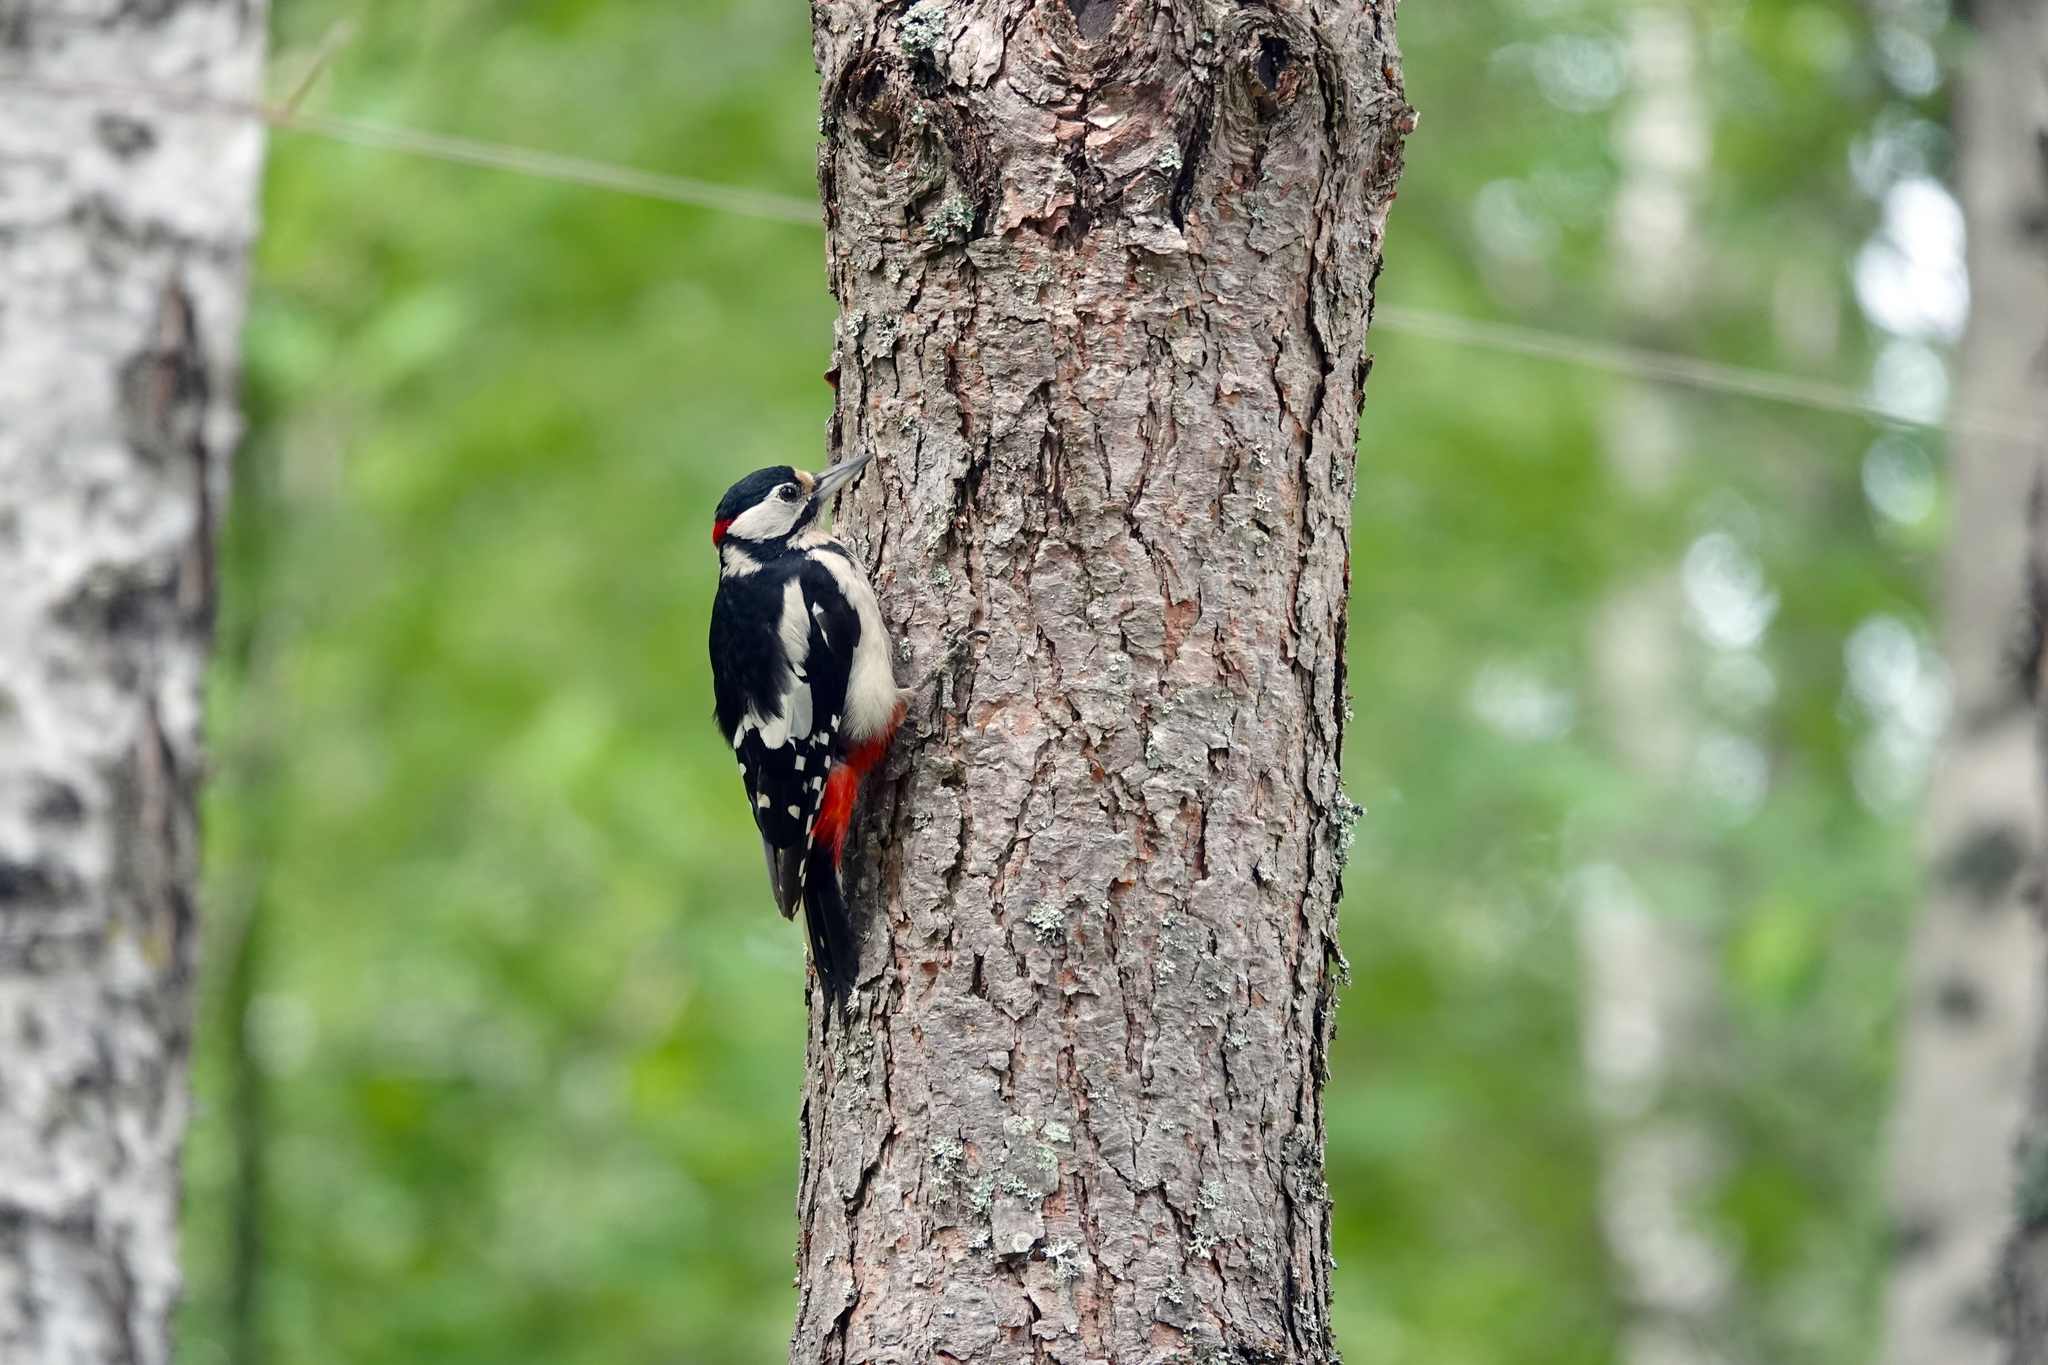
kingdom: Animalia
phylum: Chordata
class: Aves
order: Piciformes
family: Picidae
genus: Dendrocopos
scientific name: Dendrocopos major
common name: Great spotted woodpecker
